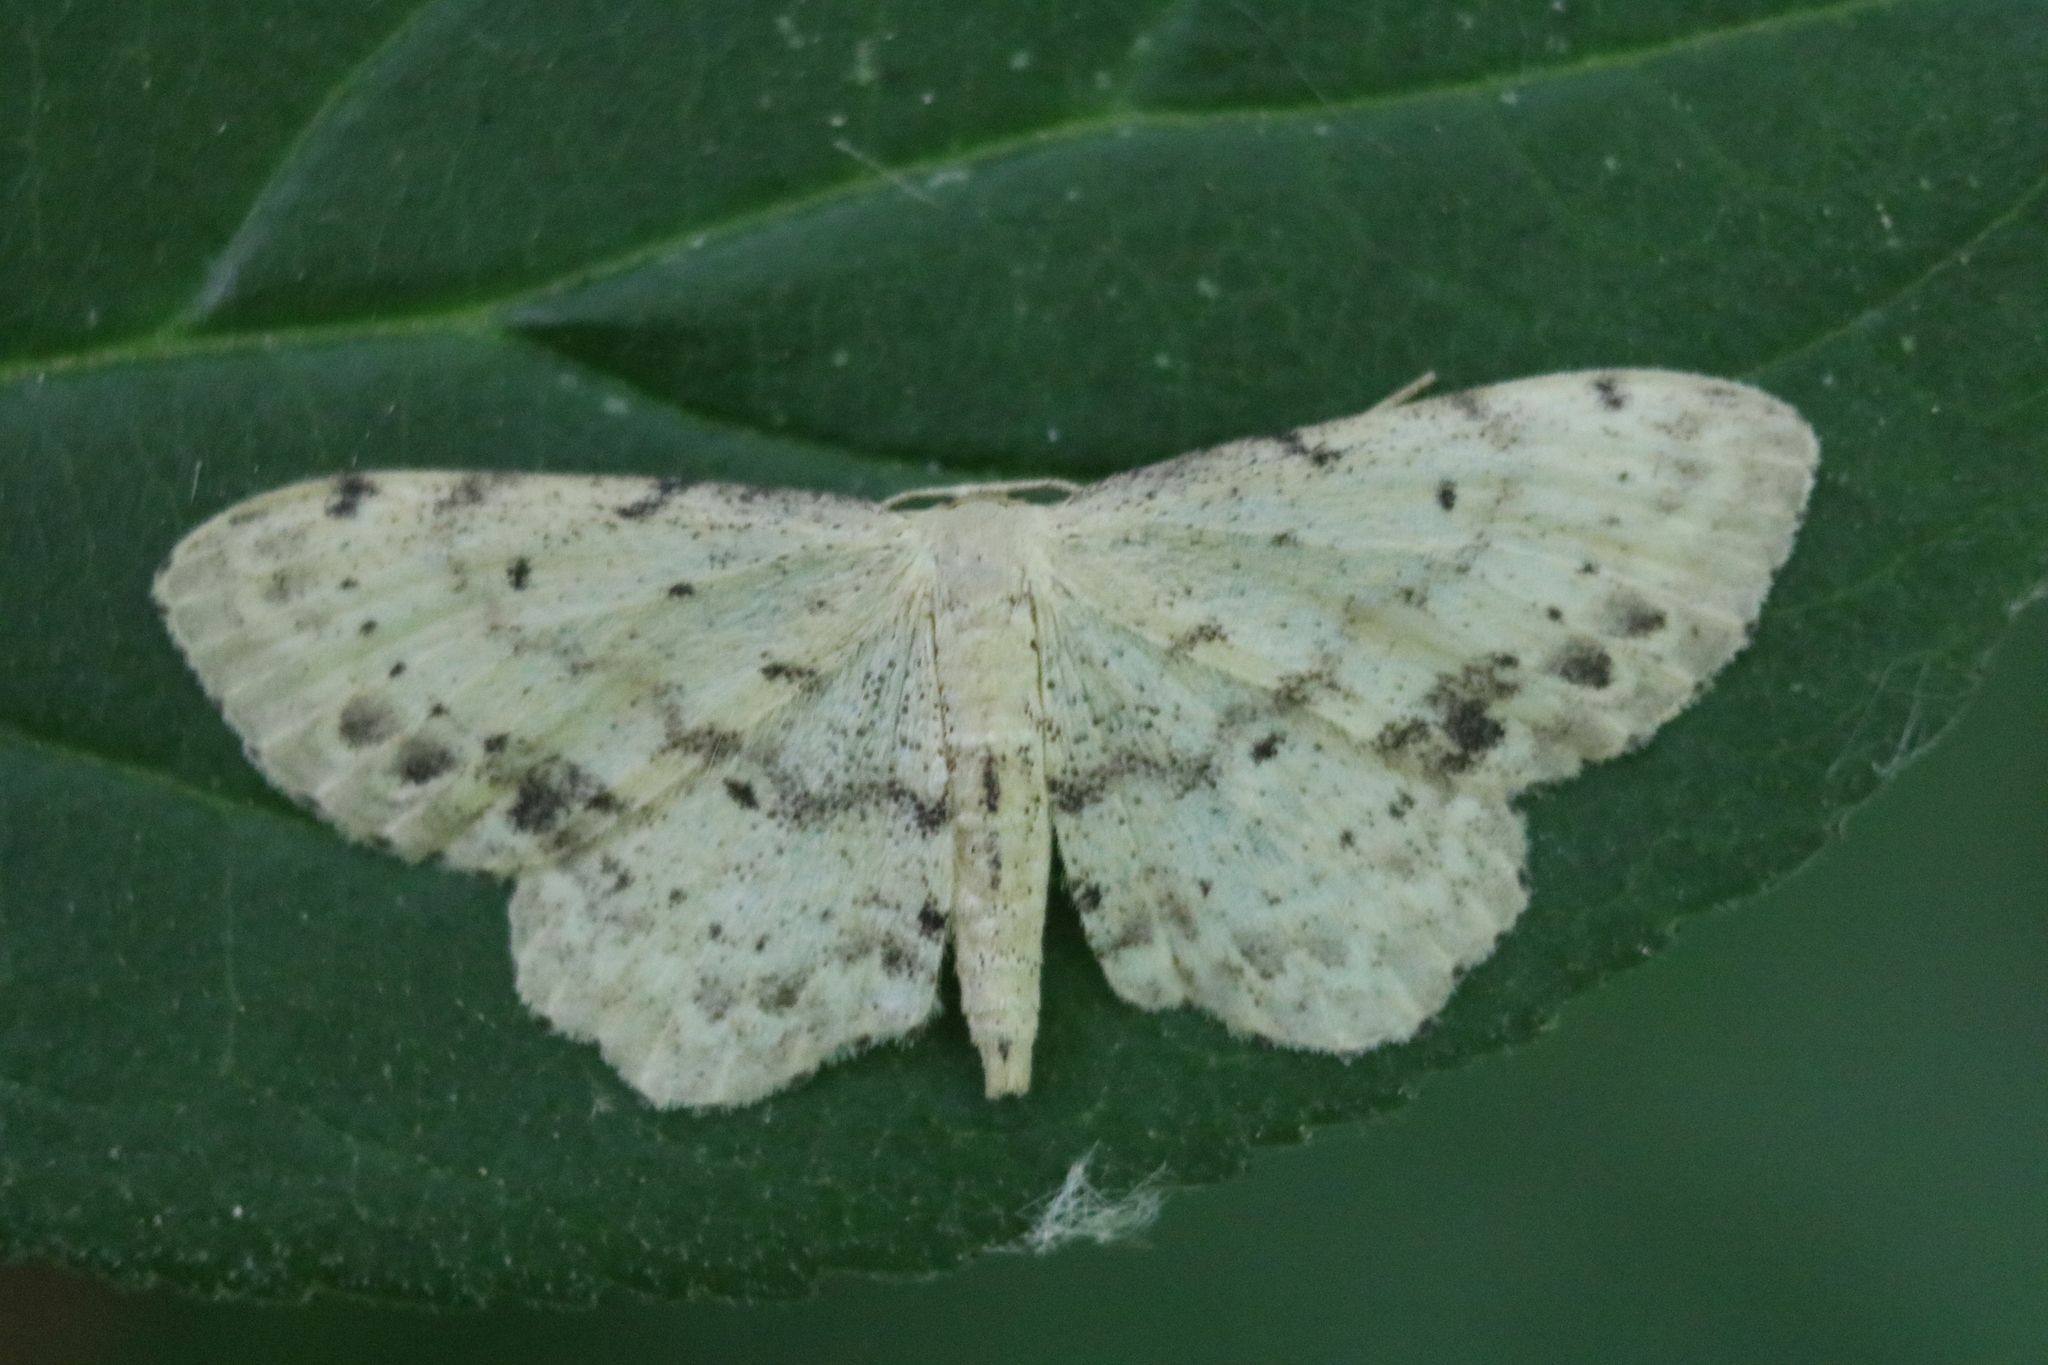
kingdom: Animalia
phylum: Arthropoda
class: Insecta
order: Lepidoptera
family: Geometridae
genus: Idaea
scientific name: Idaea dimidiata
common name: Single-dotted wave
